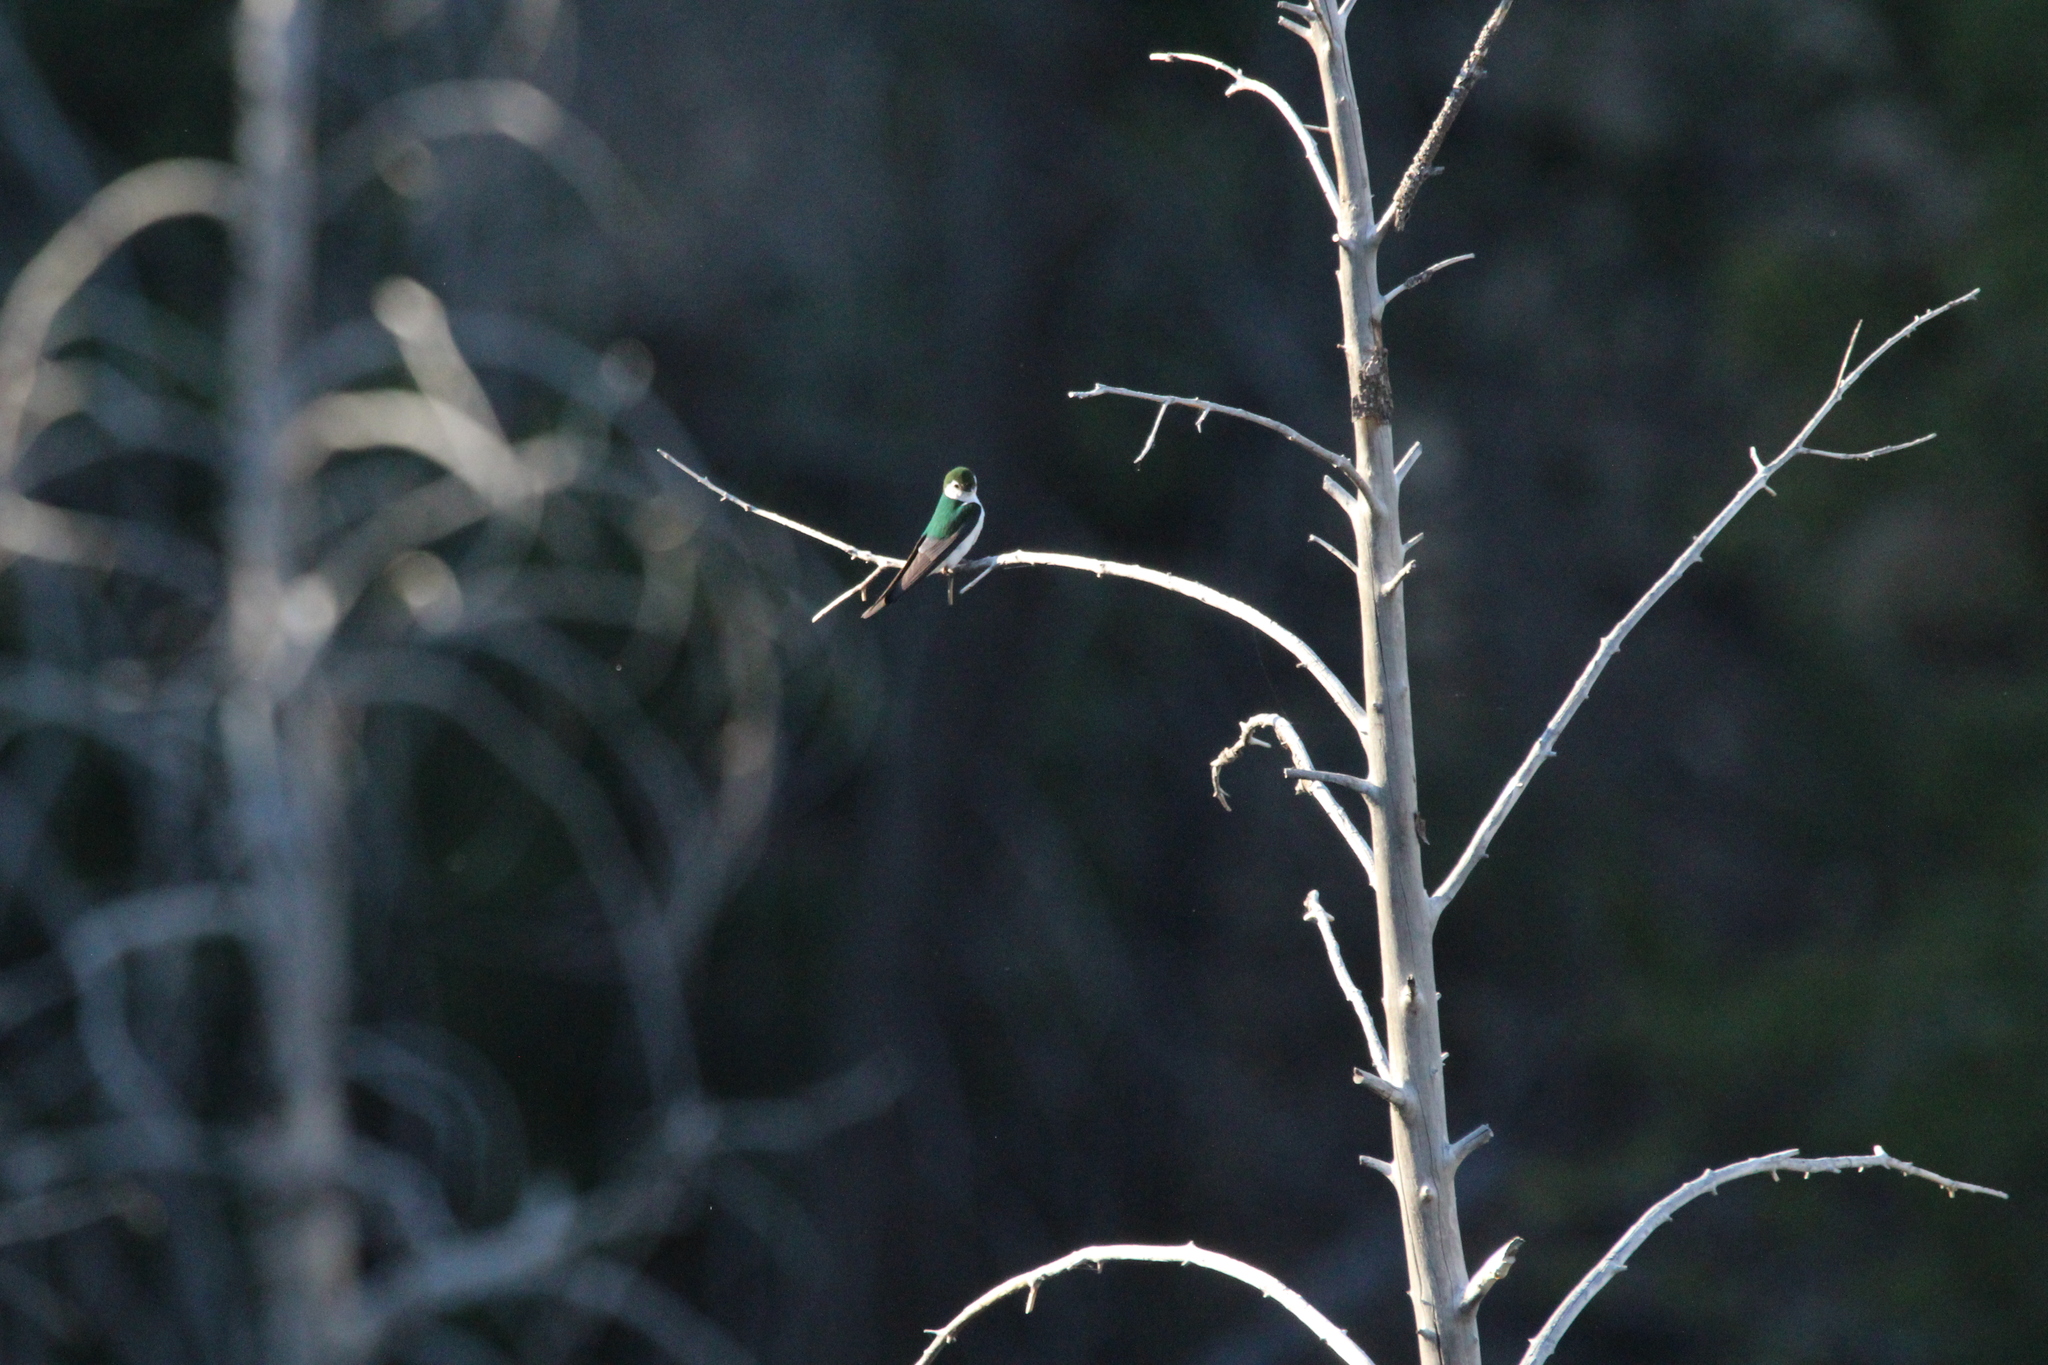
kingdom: Animalia
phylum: Chordata
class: Aves
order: Passeriformes
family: Hirundinidae
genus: Tachycineta
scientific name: Tachycineta thalassina
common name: Violet-green swallow
